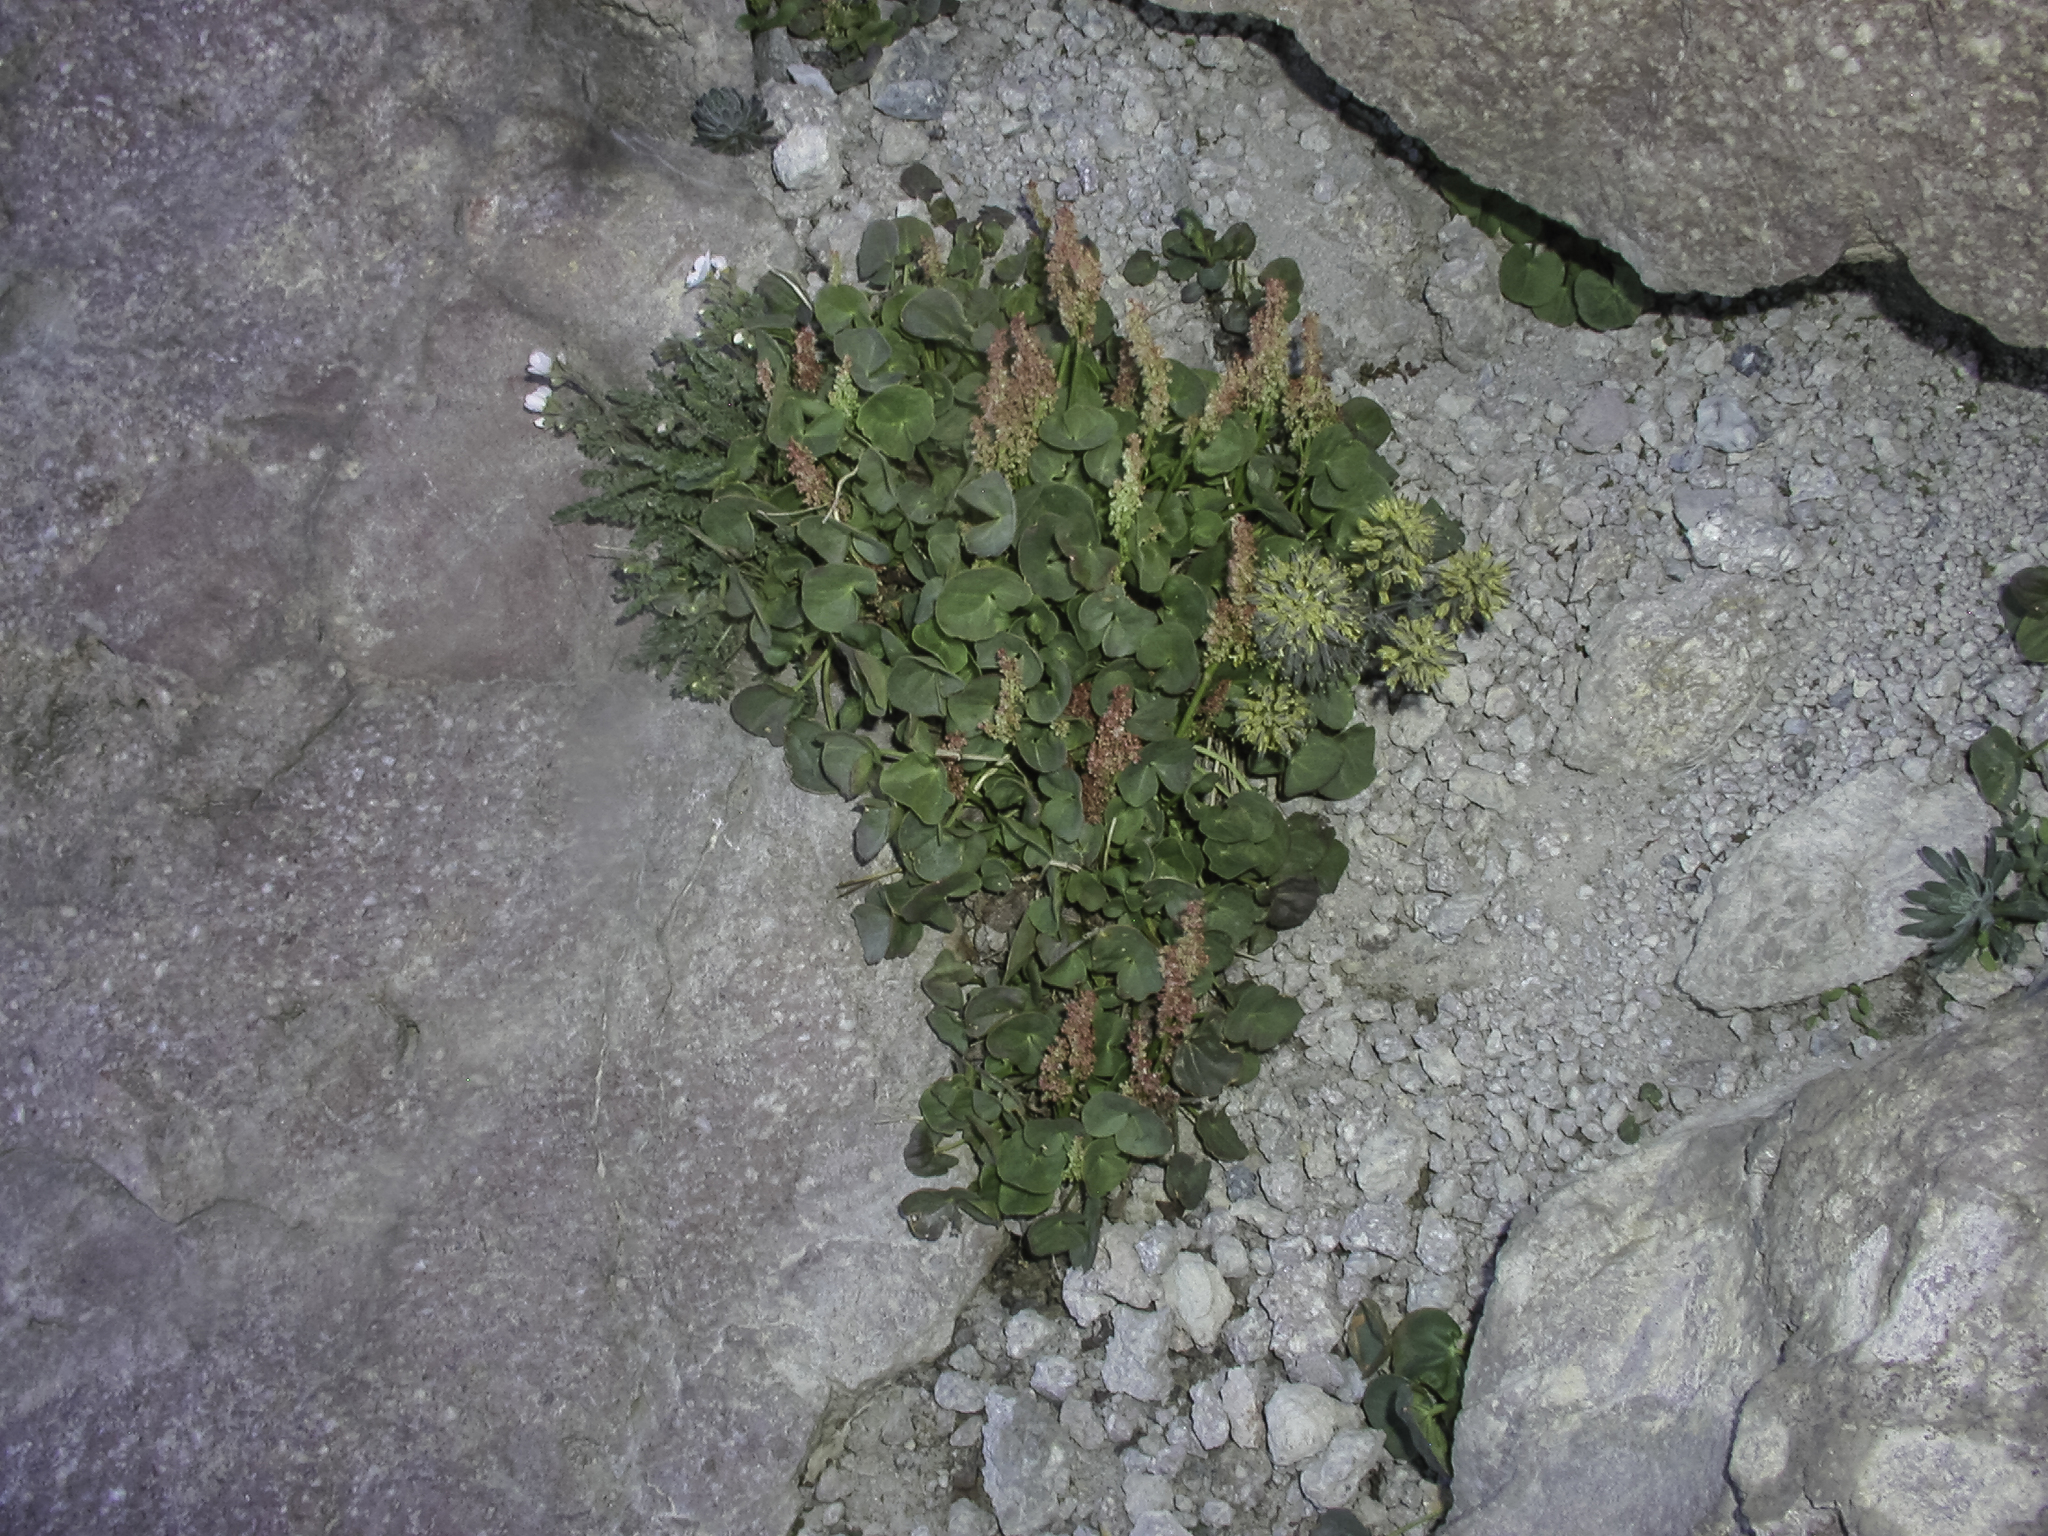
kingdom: Plantae
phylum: Tracheophyta
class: Magnoliopsida
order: Caryophyllales
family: Polygonaceae
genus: Oxyria
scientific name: Oxyria digyna
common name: Alpine mountain-sorrel
